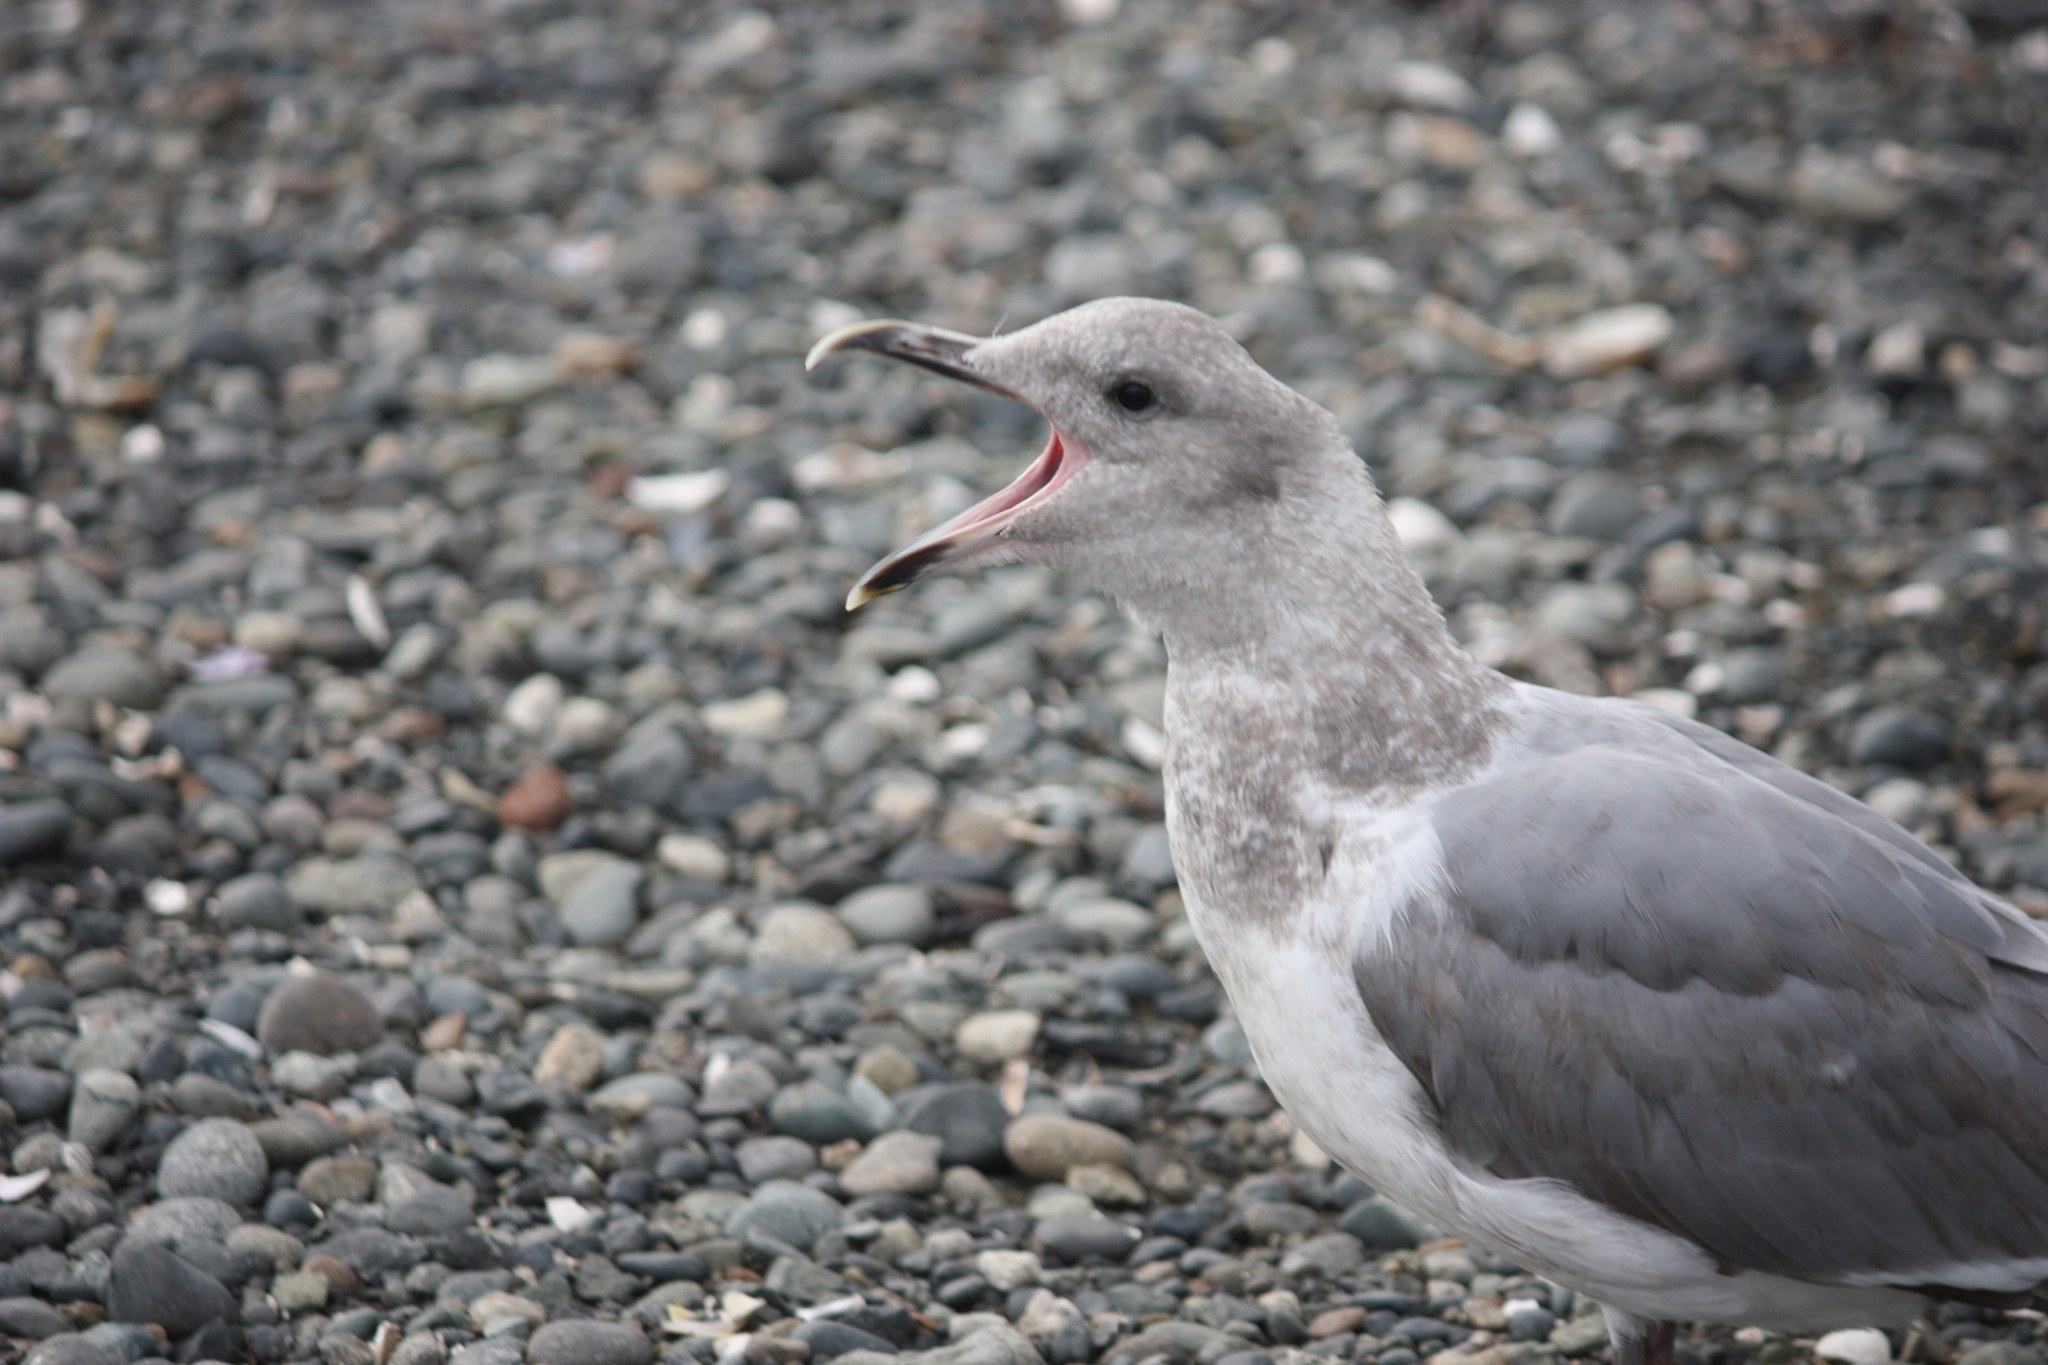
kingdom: Animalia
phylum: Chordata
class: Aves
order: Charadriiformes
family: Laridae
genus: Larus
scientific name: Larus glaucescens
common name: Glaucous-winged gull
